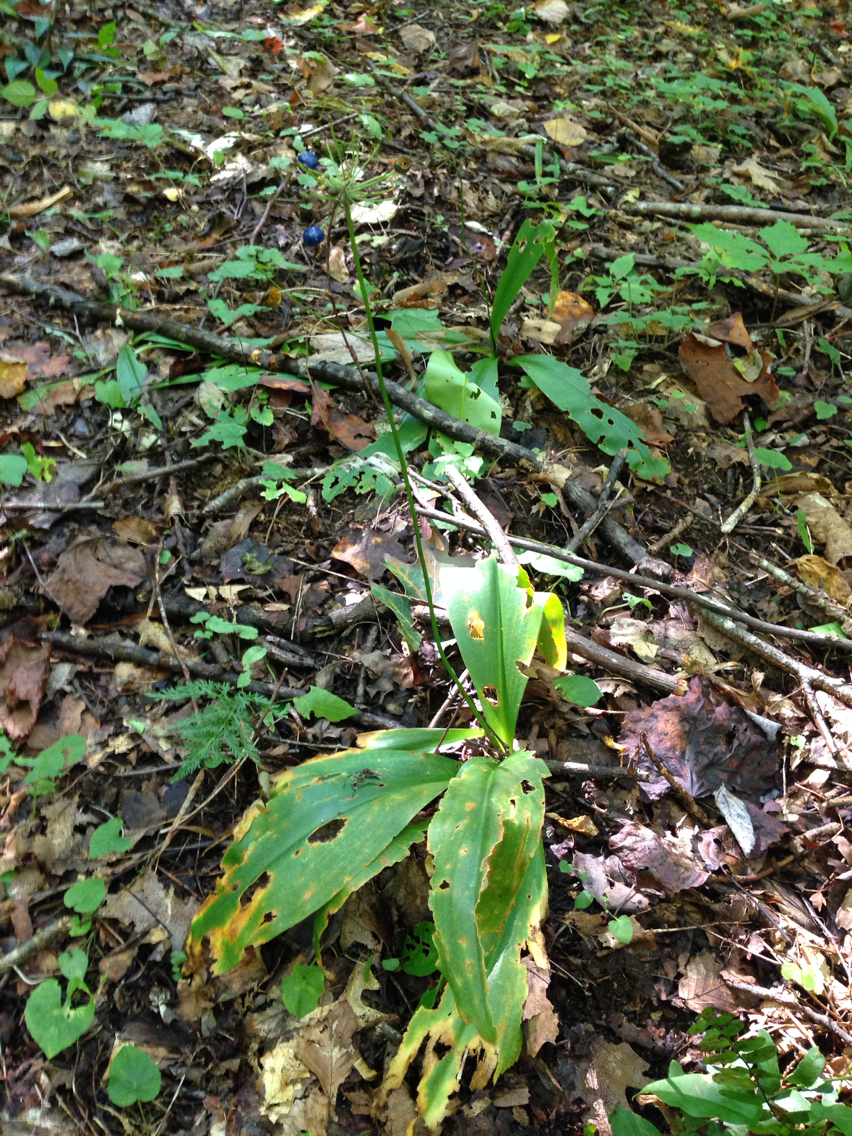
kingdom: Plantae
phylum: Tracheophyta
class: Liliopsida
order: Liliales
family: Liliaceae
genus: Clintonia
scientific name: Clintonia umbellulata
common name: Speckle wood-lily
